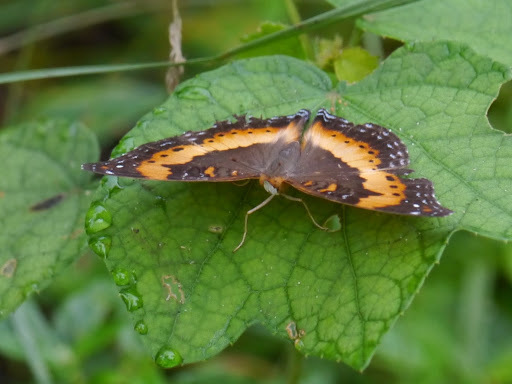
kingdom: Animalia
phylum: Arthropoda
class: Insecta
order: Lepidoptera
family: Nymphalidae
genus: Precis
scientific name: Precis pelarga
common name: Fashion commodore
